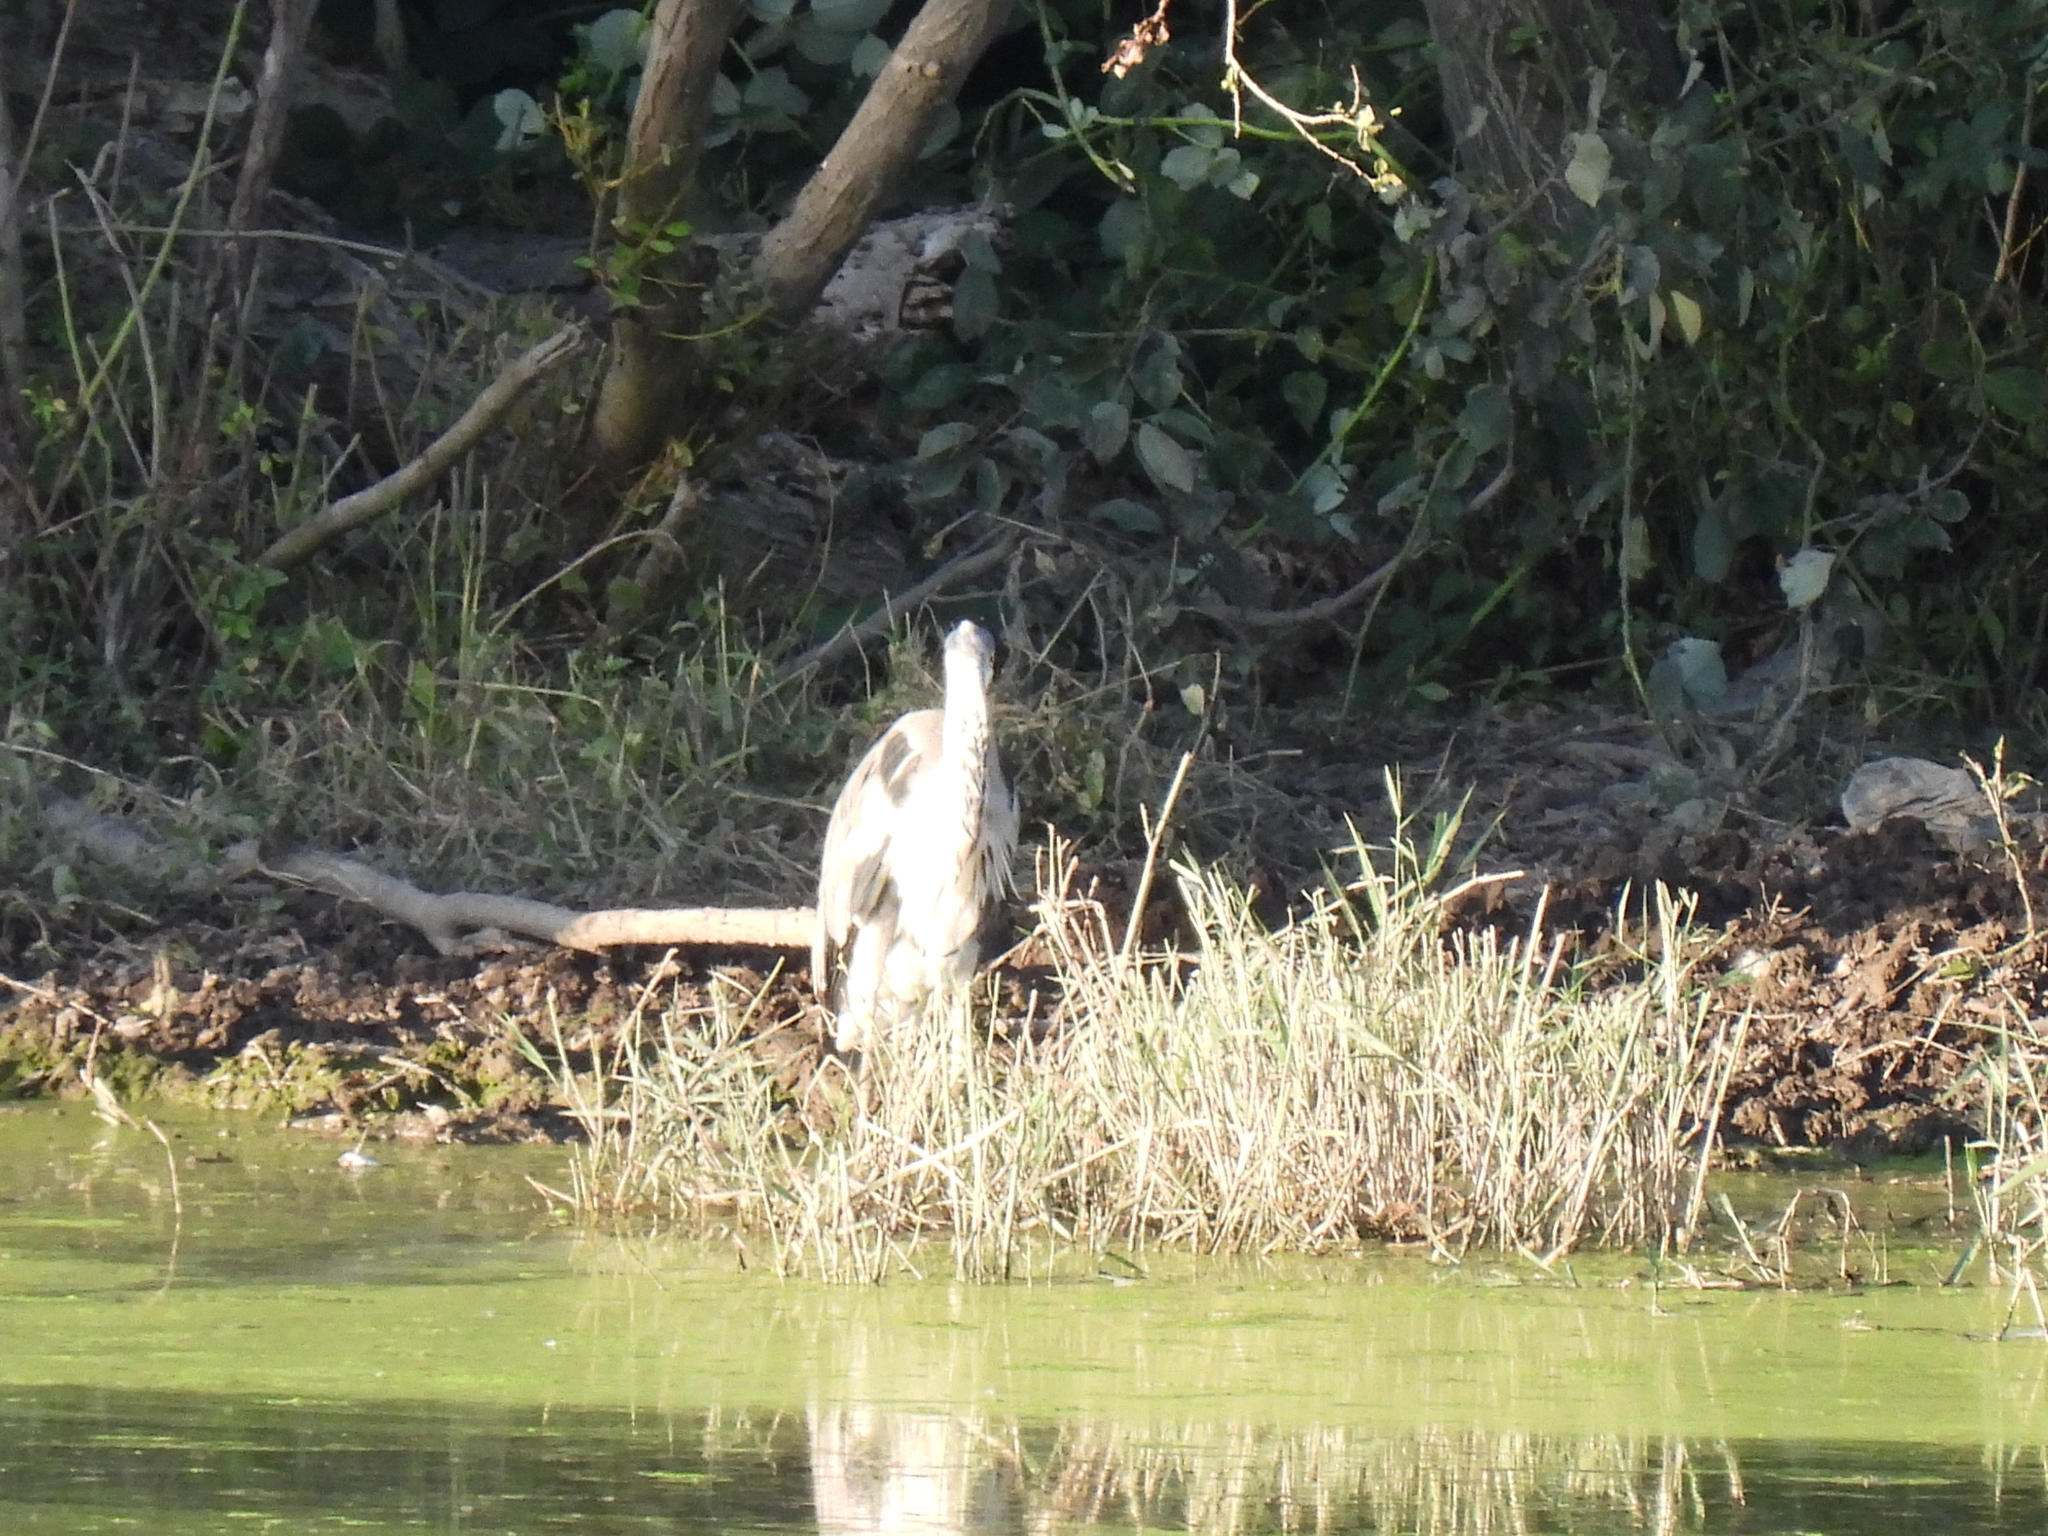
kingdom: Animalia
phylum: Chordata
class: Aves
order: Pelecaniformes
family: Ardeidae
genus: Ardea
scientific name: Ardea cinerea
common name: Grey heron
